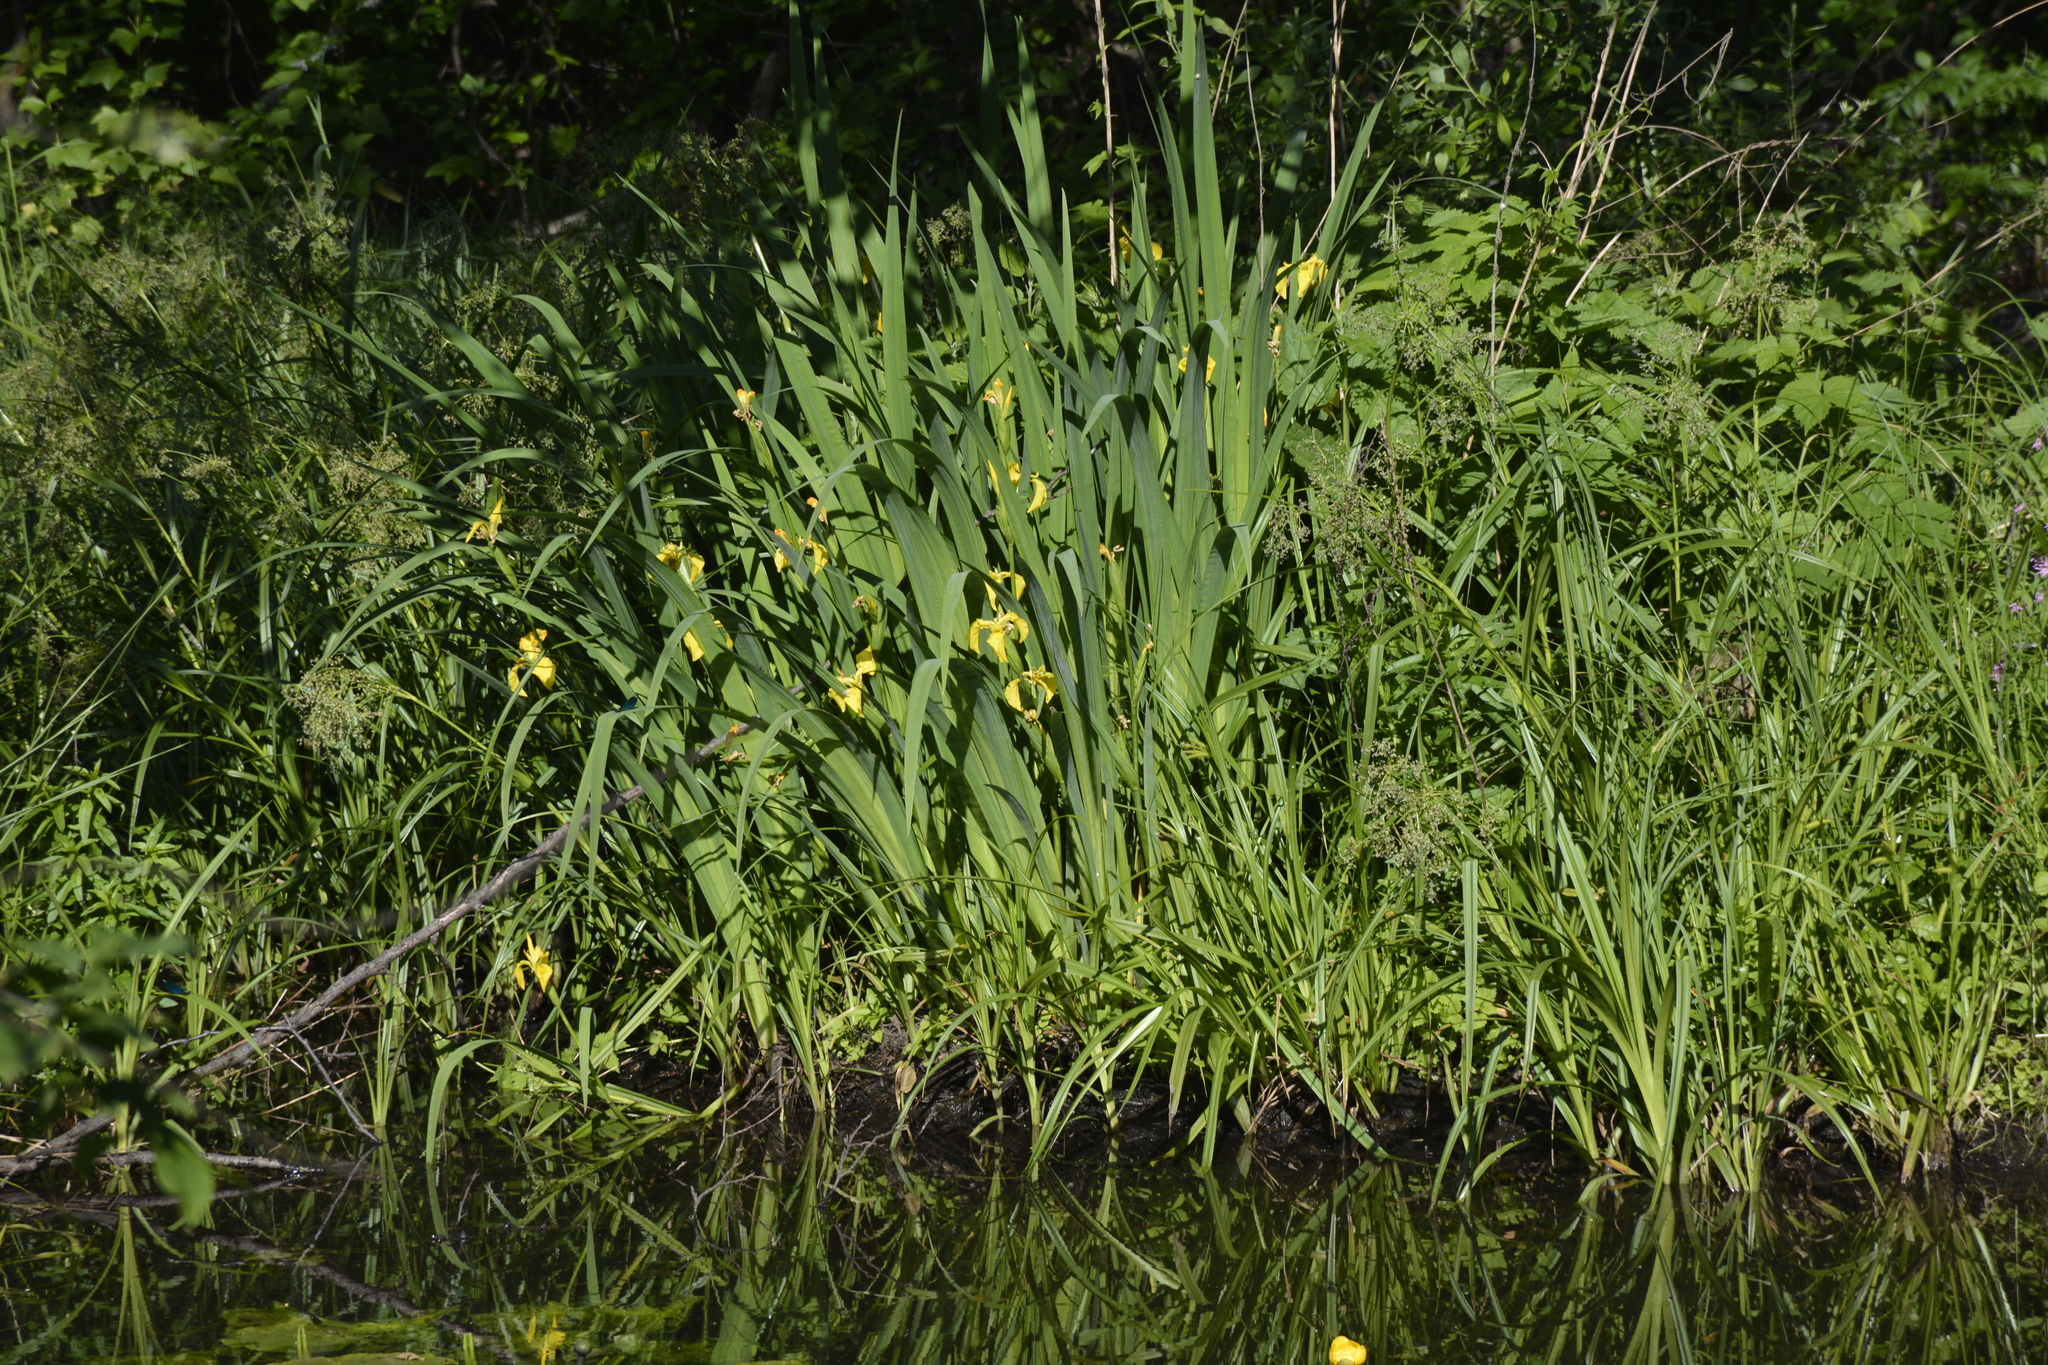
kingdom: Plantae
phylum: Tracheophyta
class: Liliopsida
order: Asparagales
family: Iridaceae
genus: Iris
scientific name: Iris pseudacorus
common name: Yellow flag
